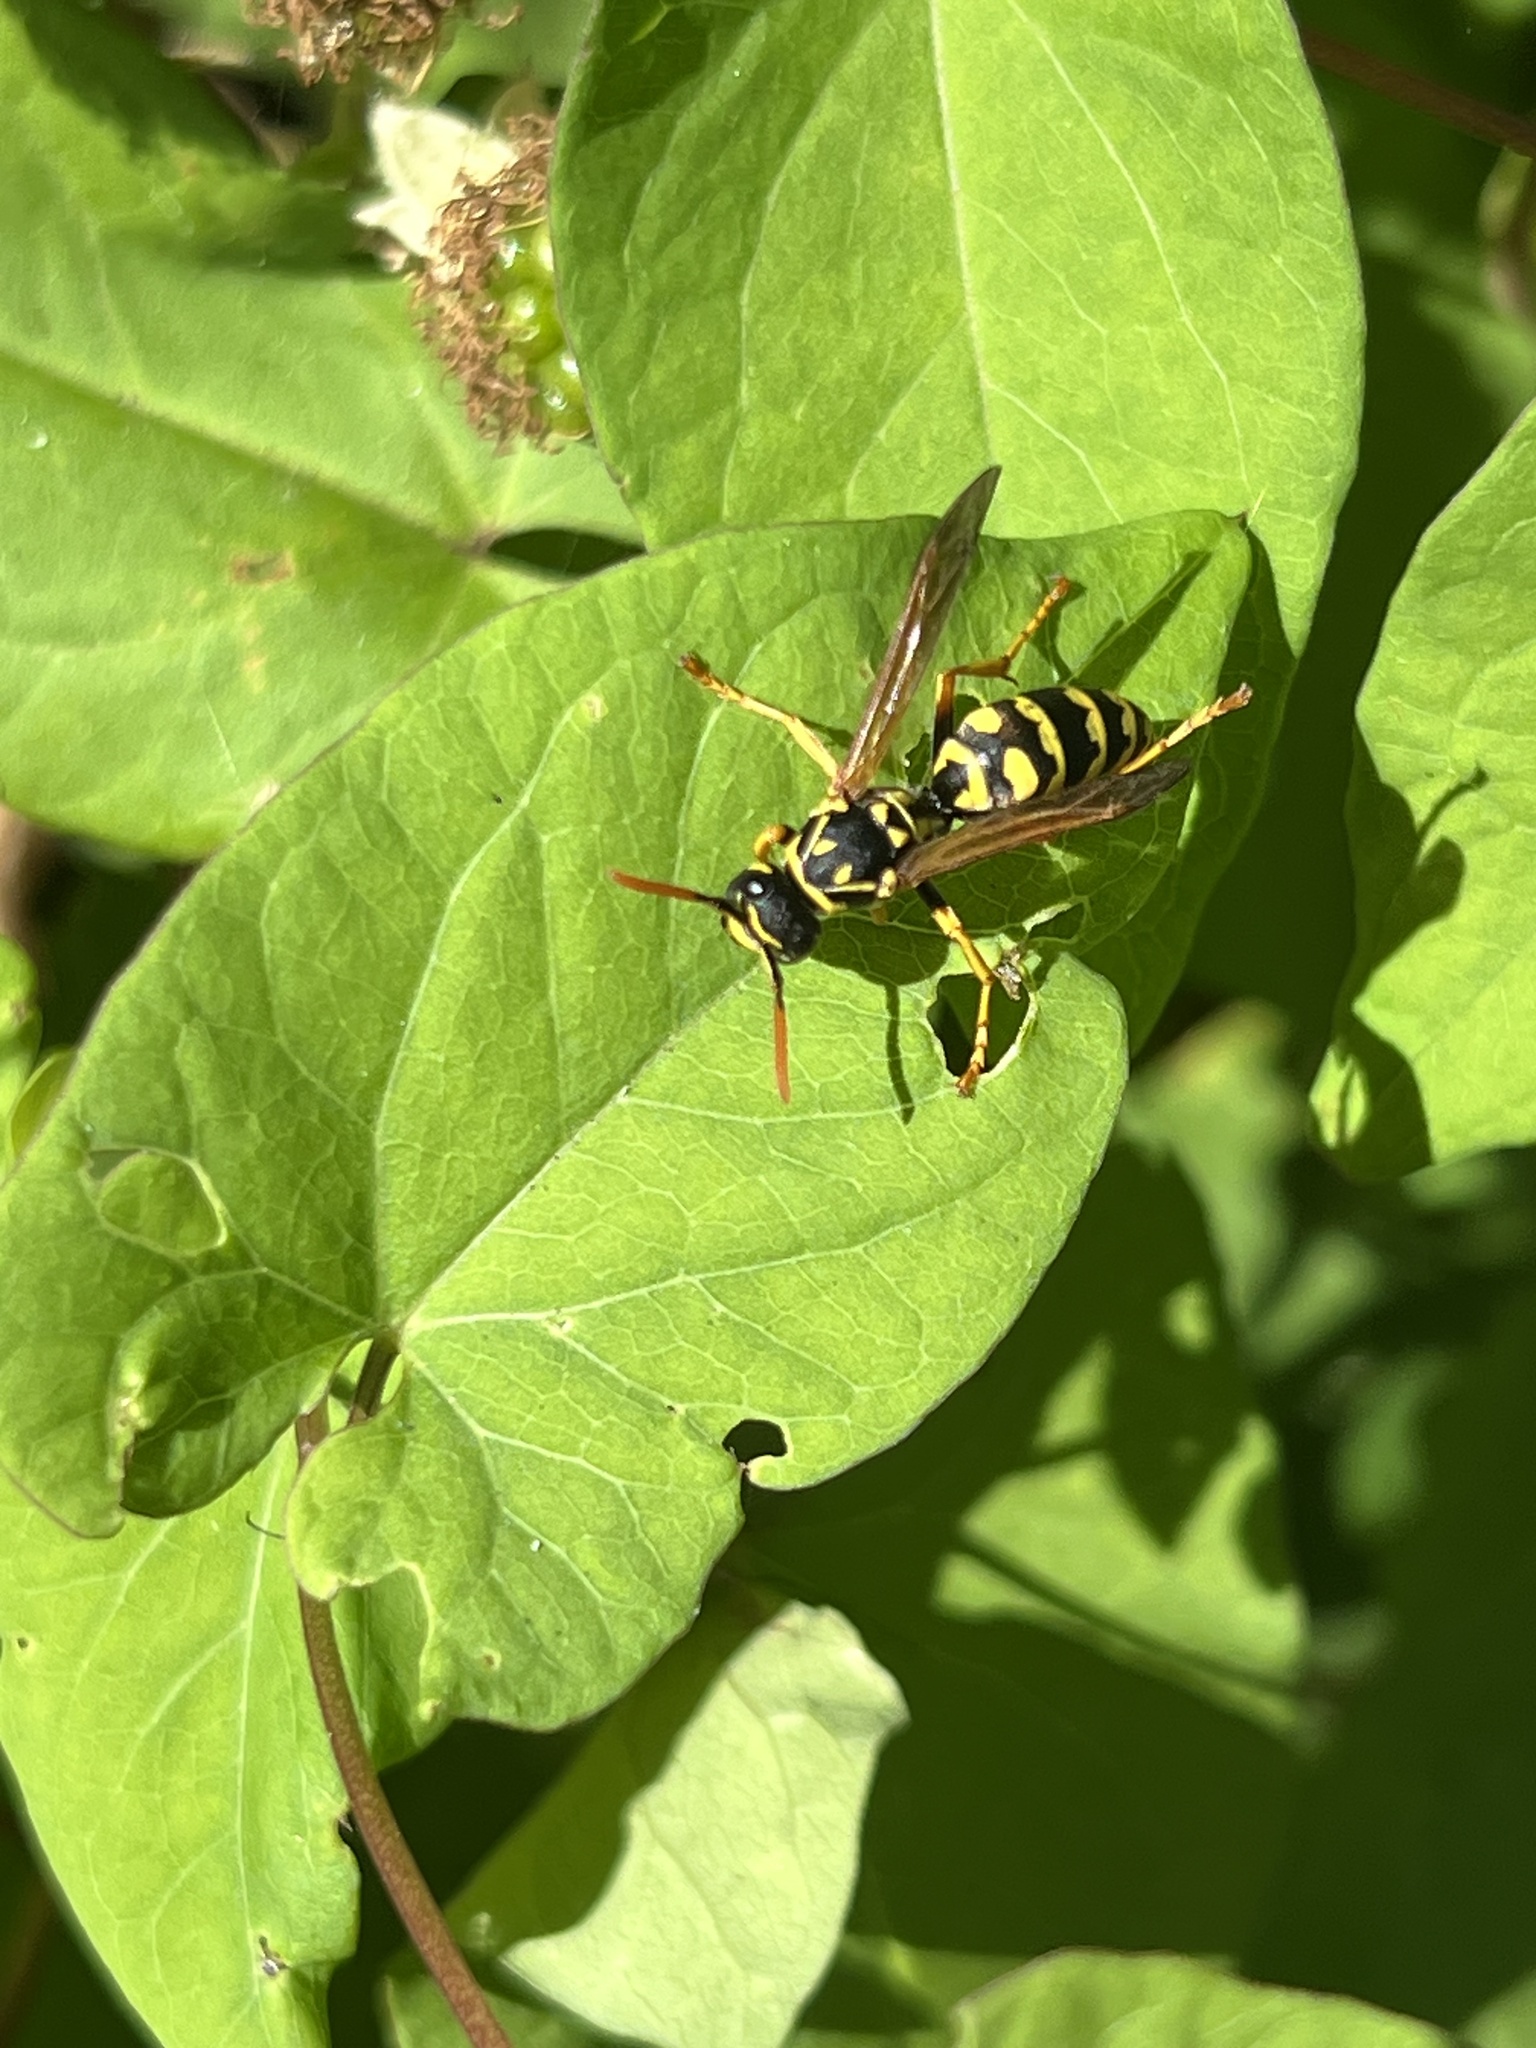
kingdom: Animalia
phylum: Arthropoda
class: Insecta
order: Hymenoptera
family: Eumenidae
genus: Polistes
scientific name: Polistes dominula
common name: Paper wasp
